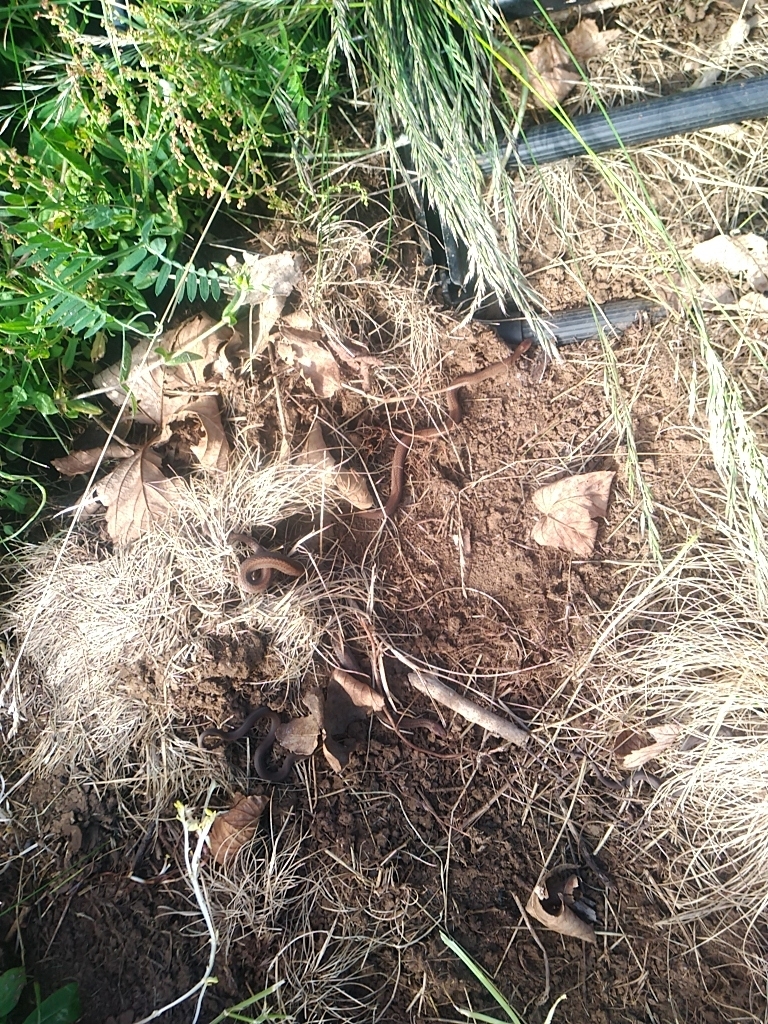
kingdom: Animalia
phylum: Chordata
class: Squamata
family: Colubridae
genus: Storeria
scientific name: Storeria occipitomaculata
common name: Redbelly snake
